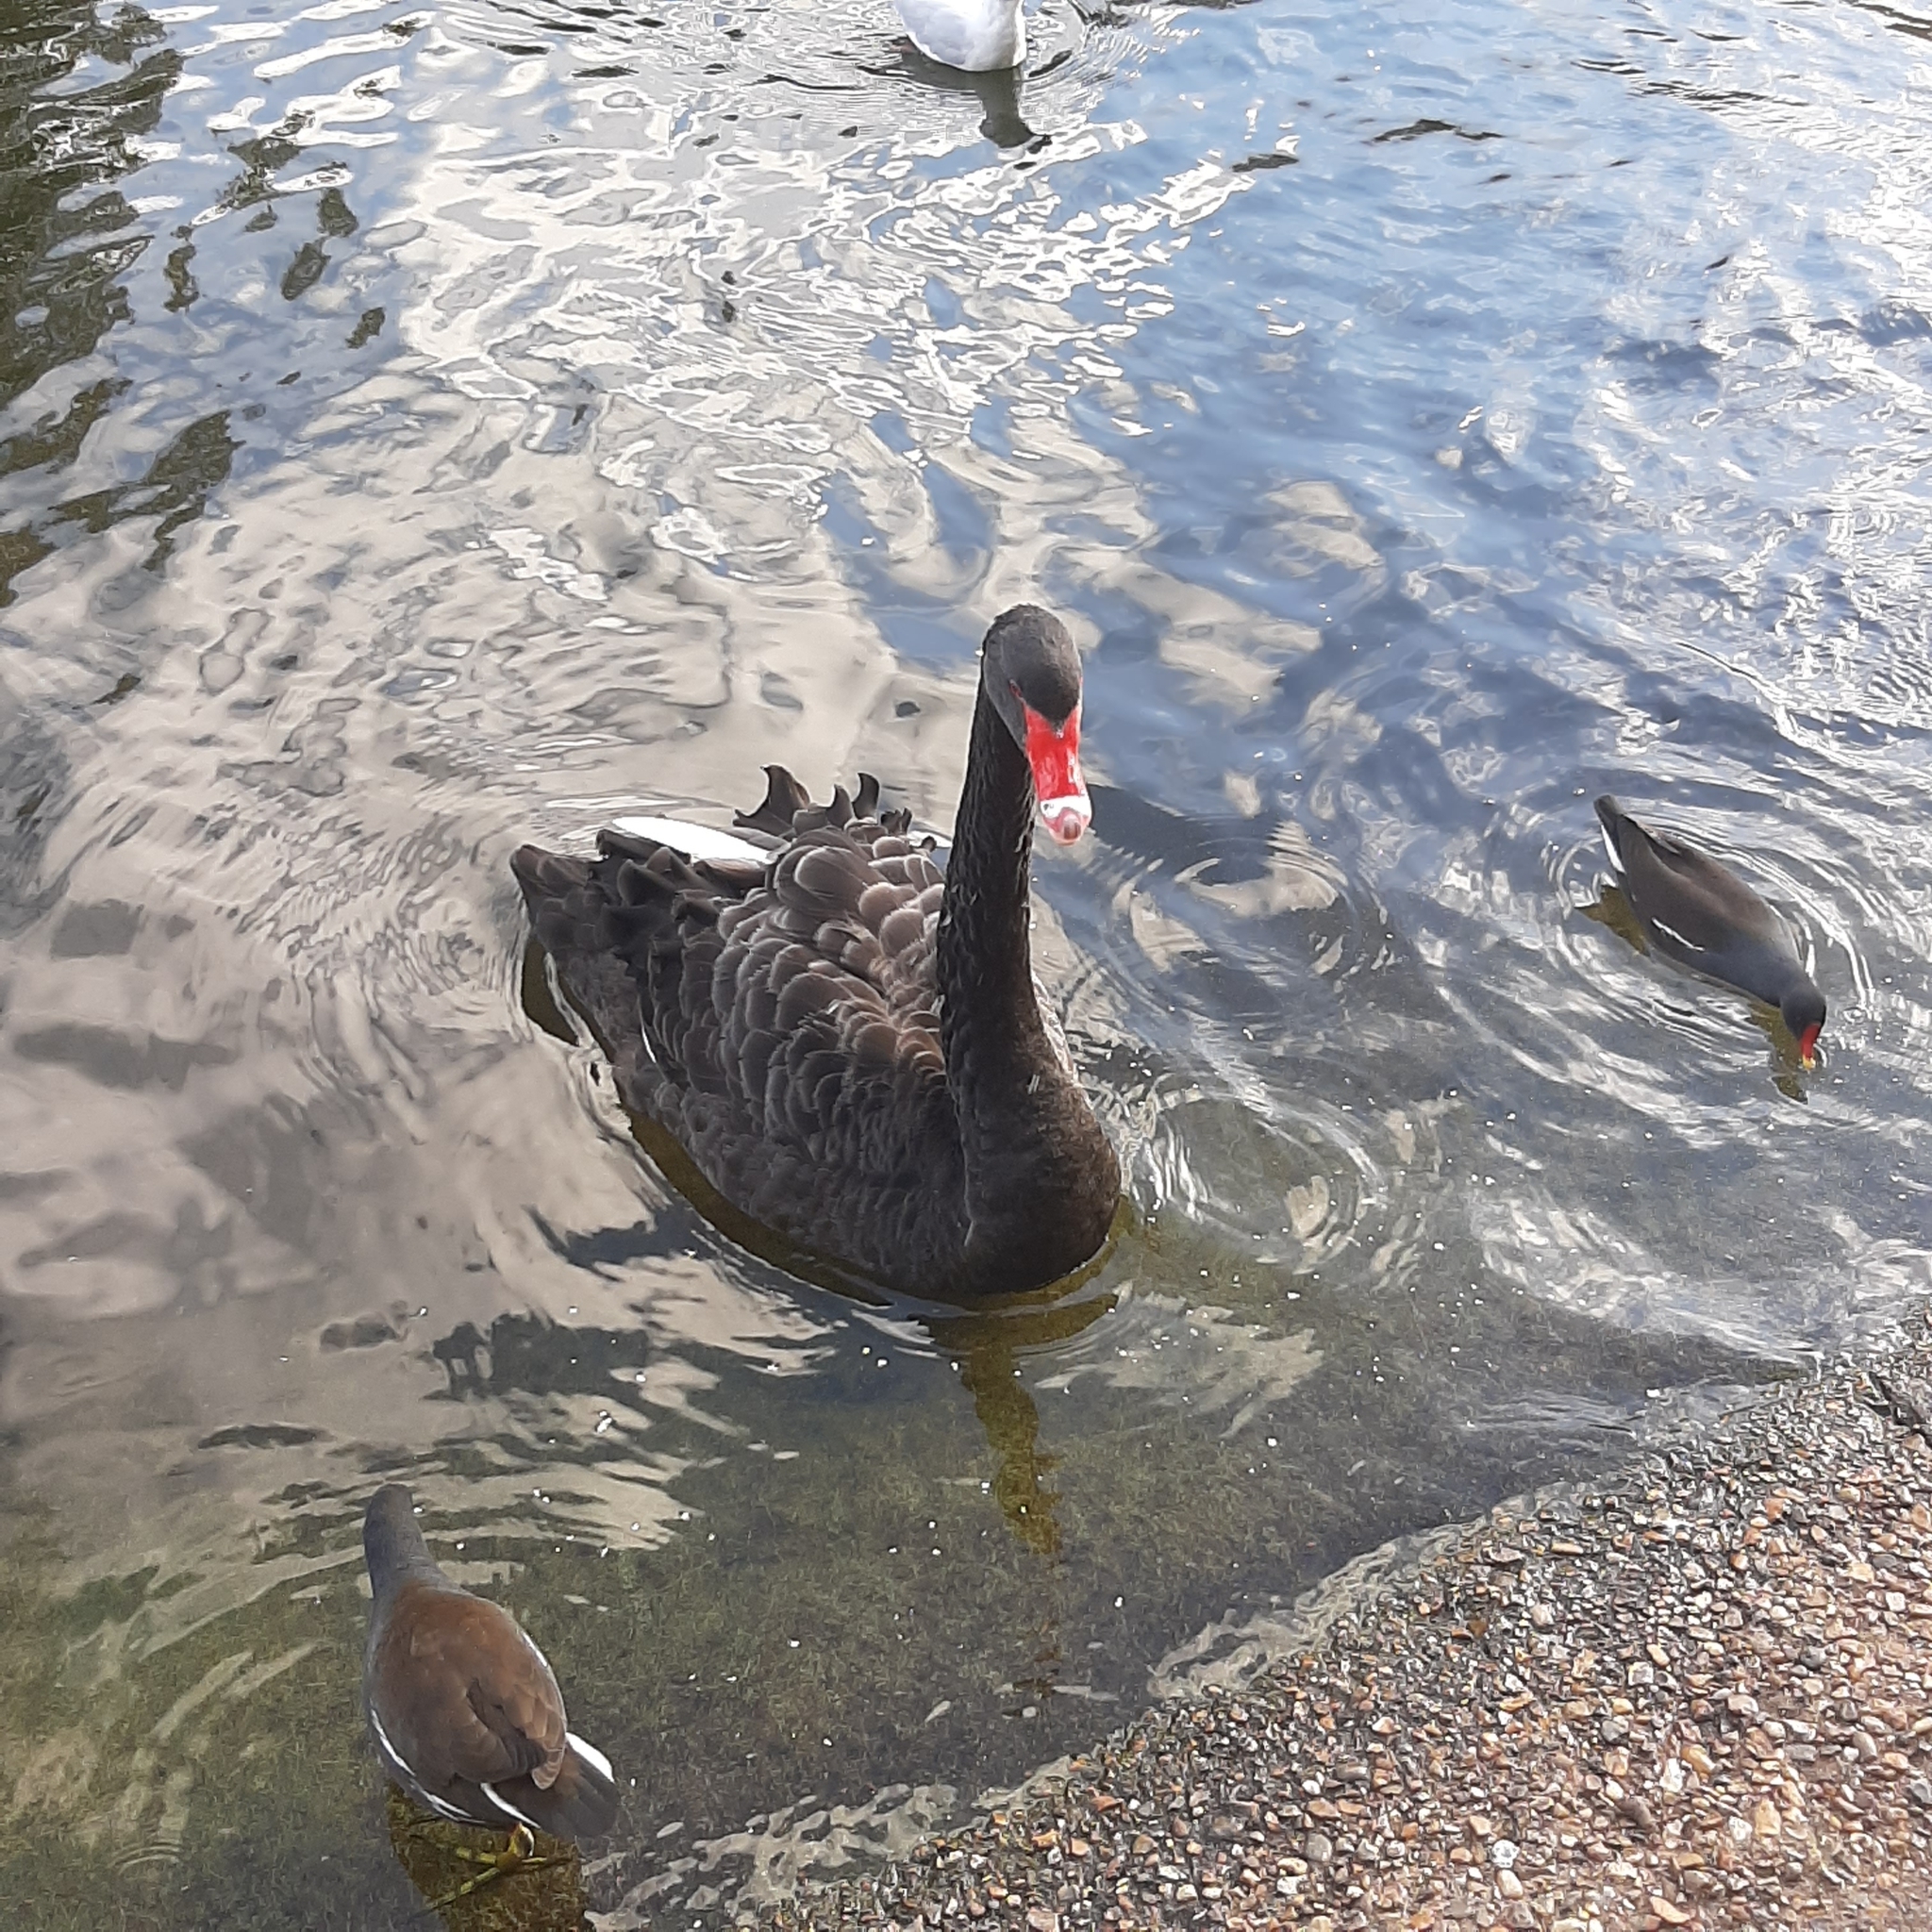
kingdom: Animalia
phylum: Chordata
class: Aves
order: Anseriformes
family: Anatidae
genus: Cygnus
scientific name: Cygnus atratus
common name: Black swan
